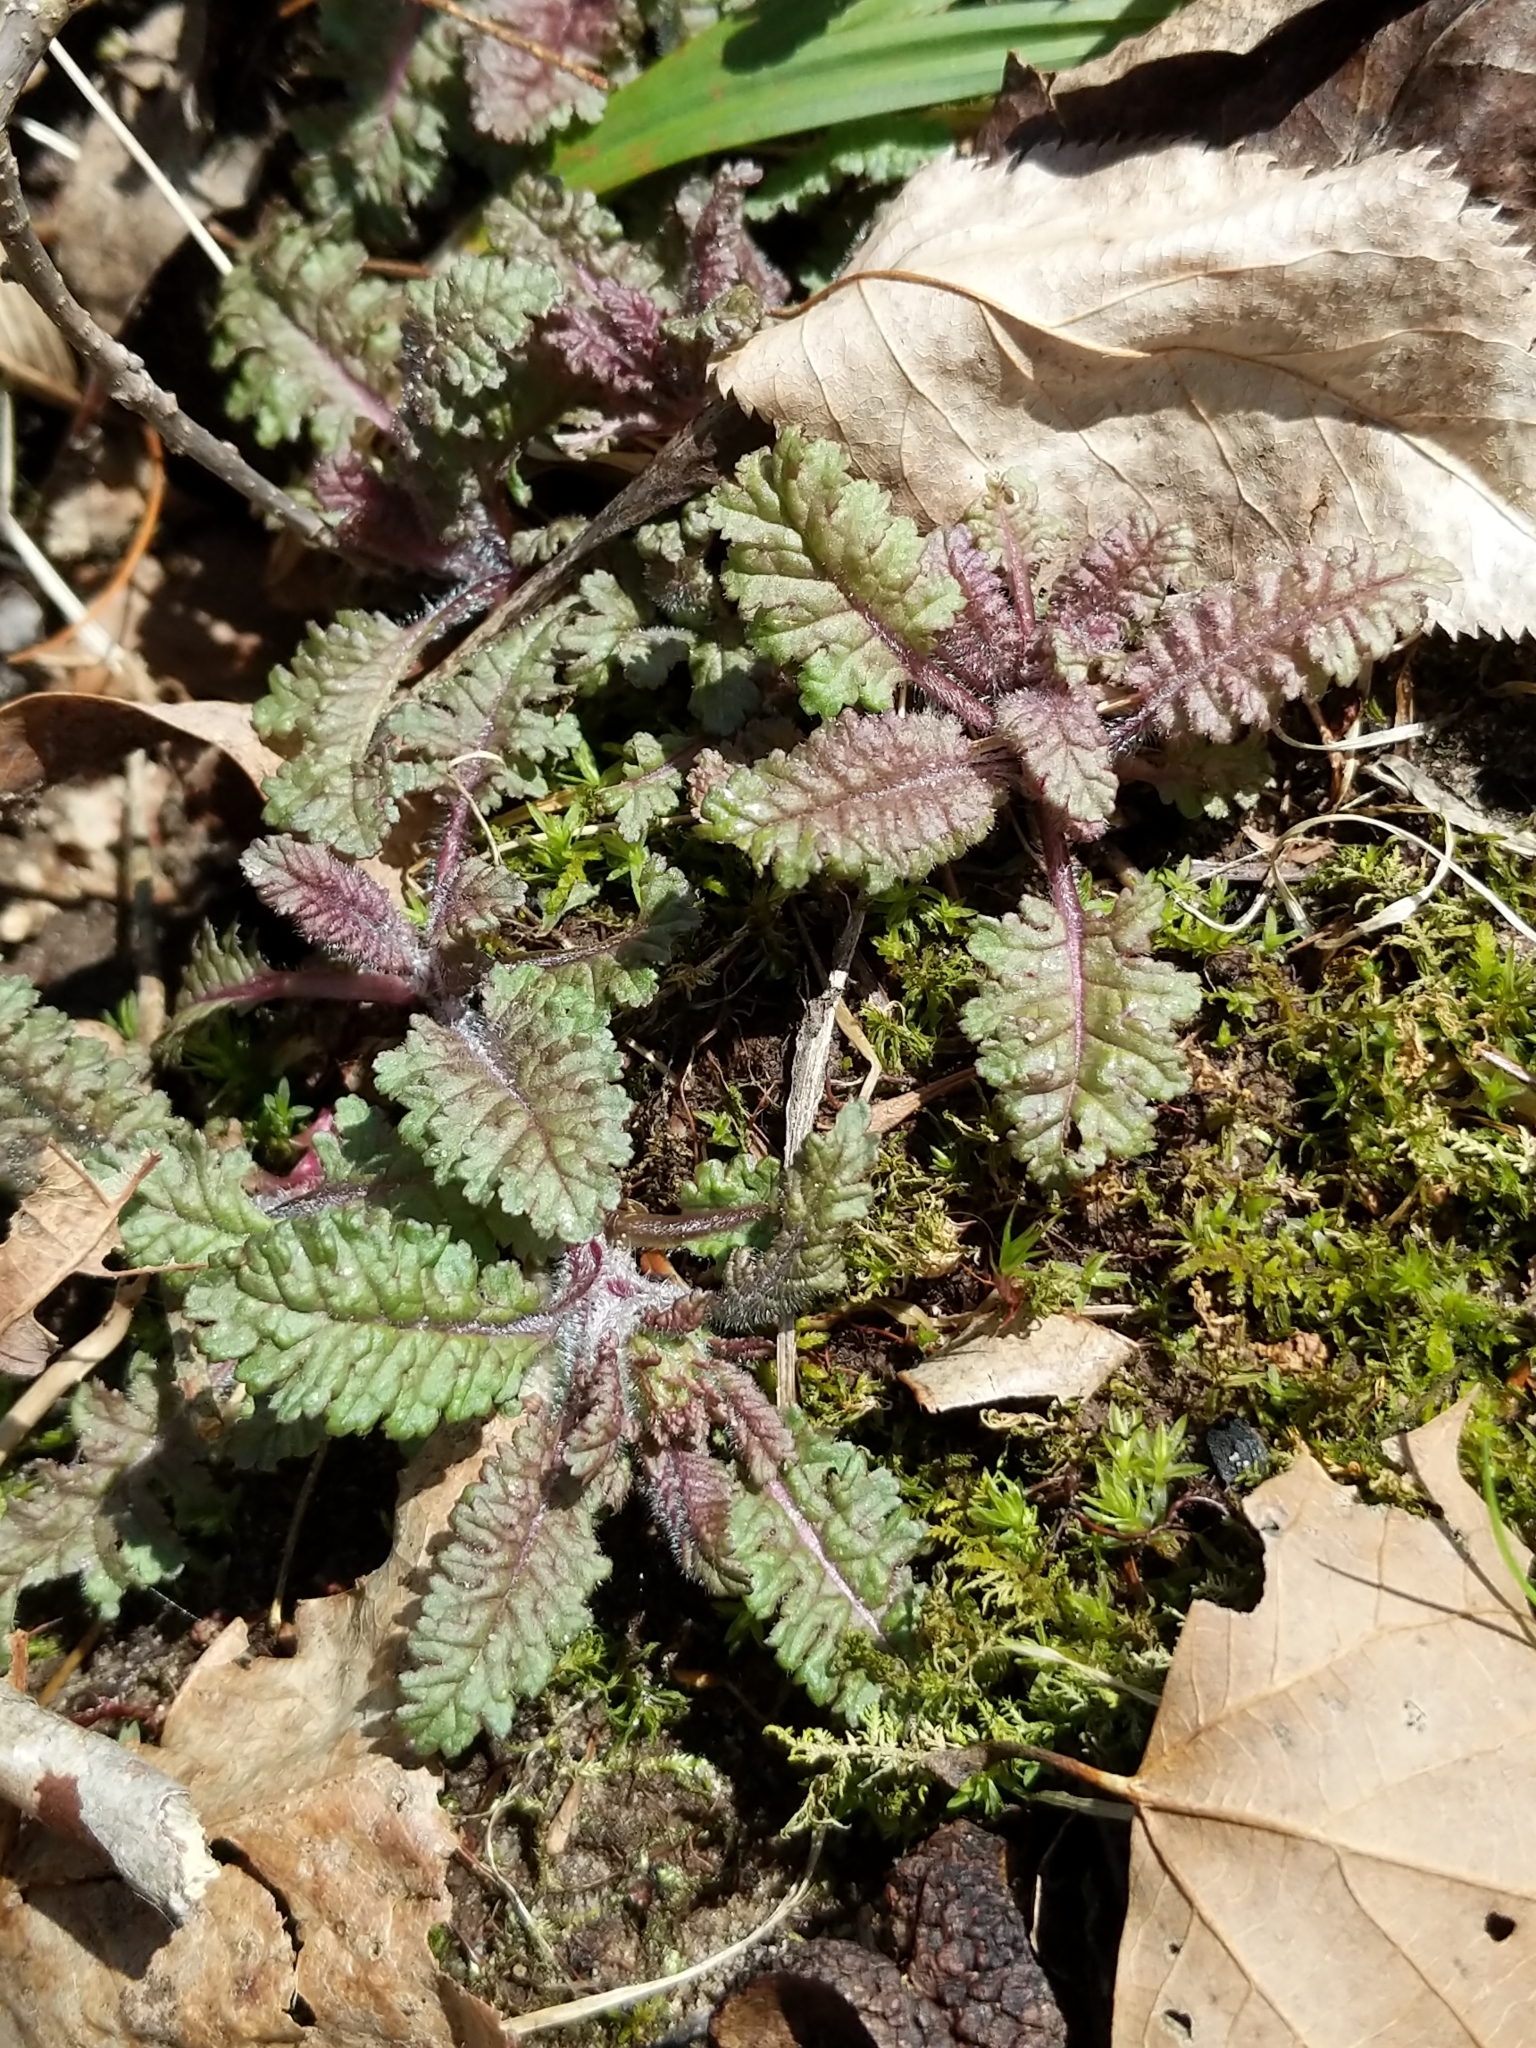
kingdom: Plantae
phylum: Tracheophyta
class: Magnoliopsida
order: Lamiales
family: Orobanchaceae
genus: Pedicularis
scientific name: Pedicularis canadensis
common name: Early lousewort
